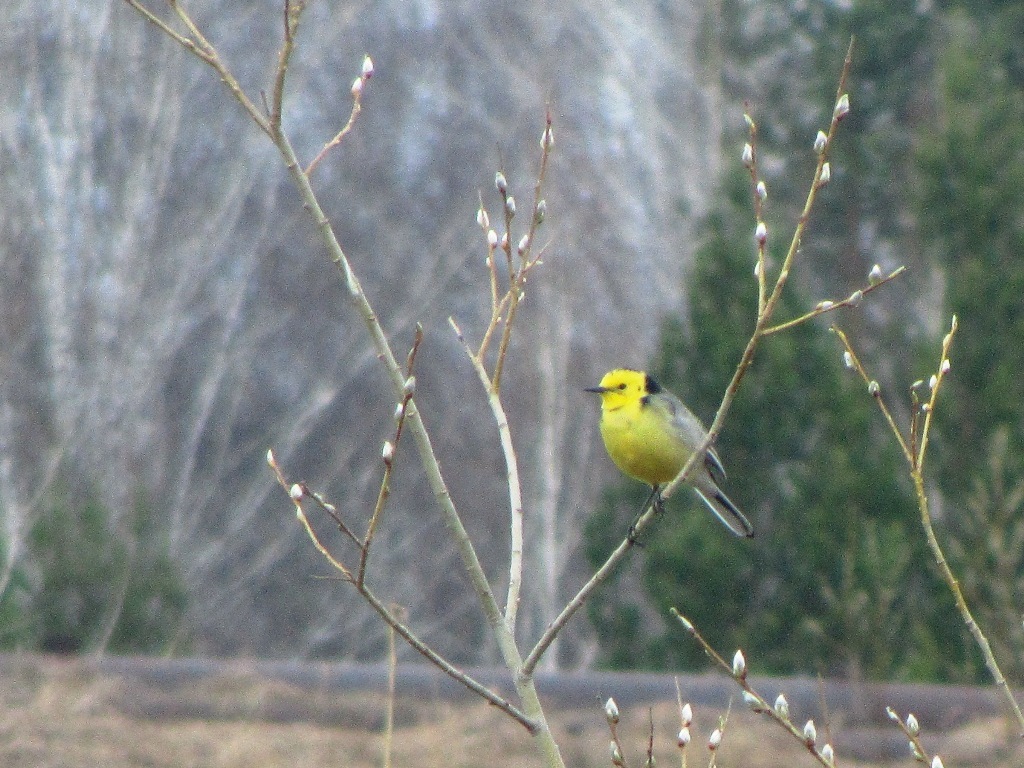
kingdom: Animalia
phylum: Chordata
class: Aves
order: Passeriformes
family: Motacillidae
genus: Motacilla
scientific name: Motacilla citreola
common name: Citrine wagtail
